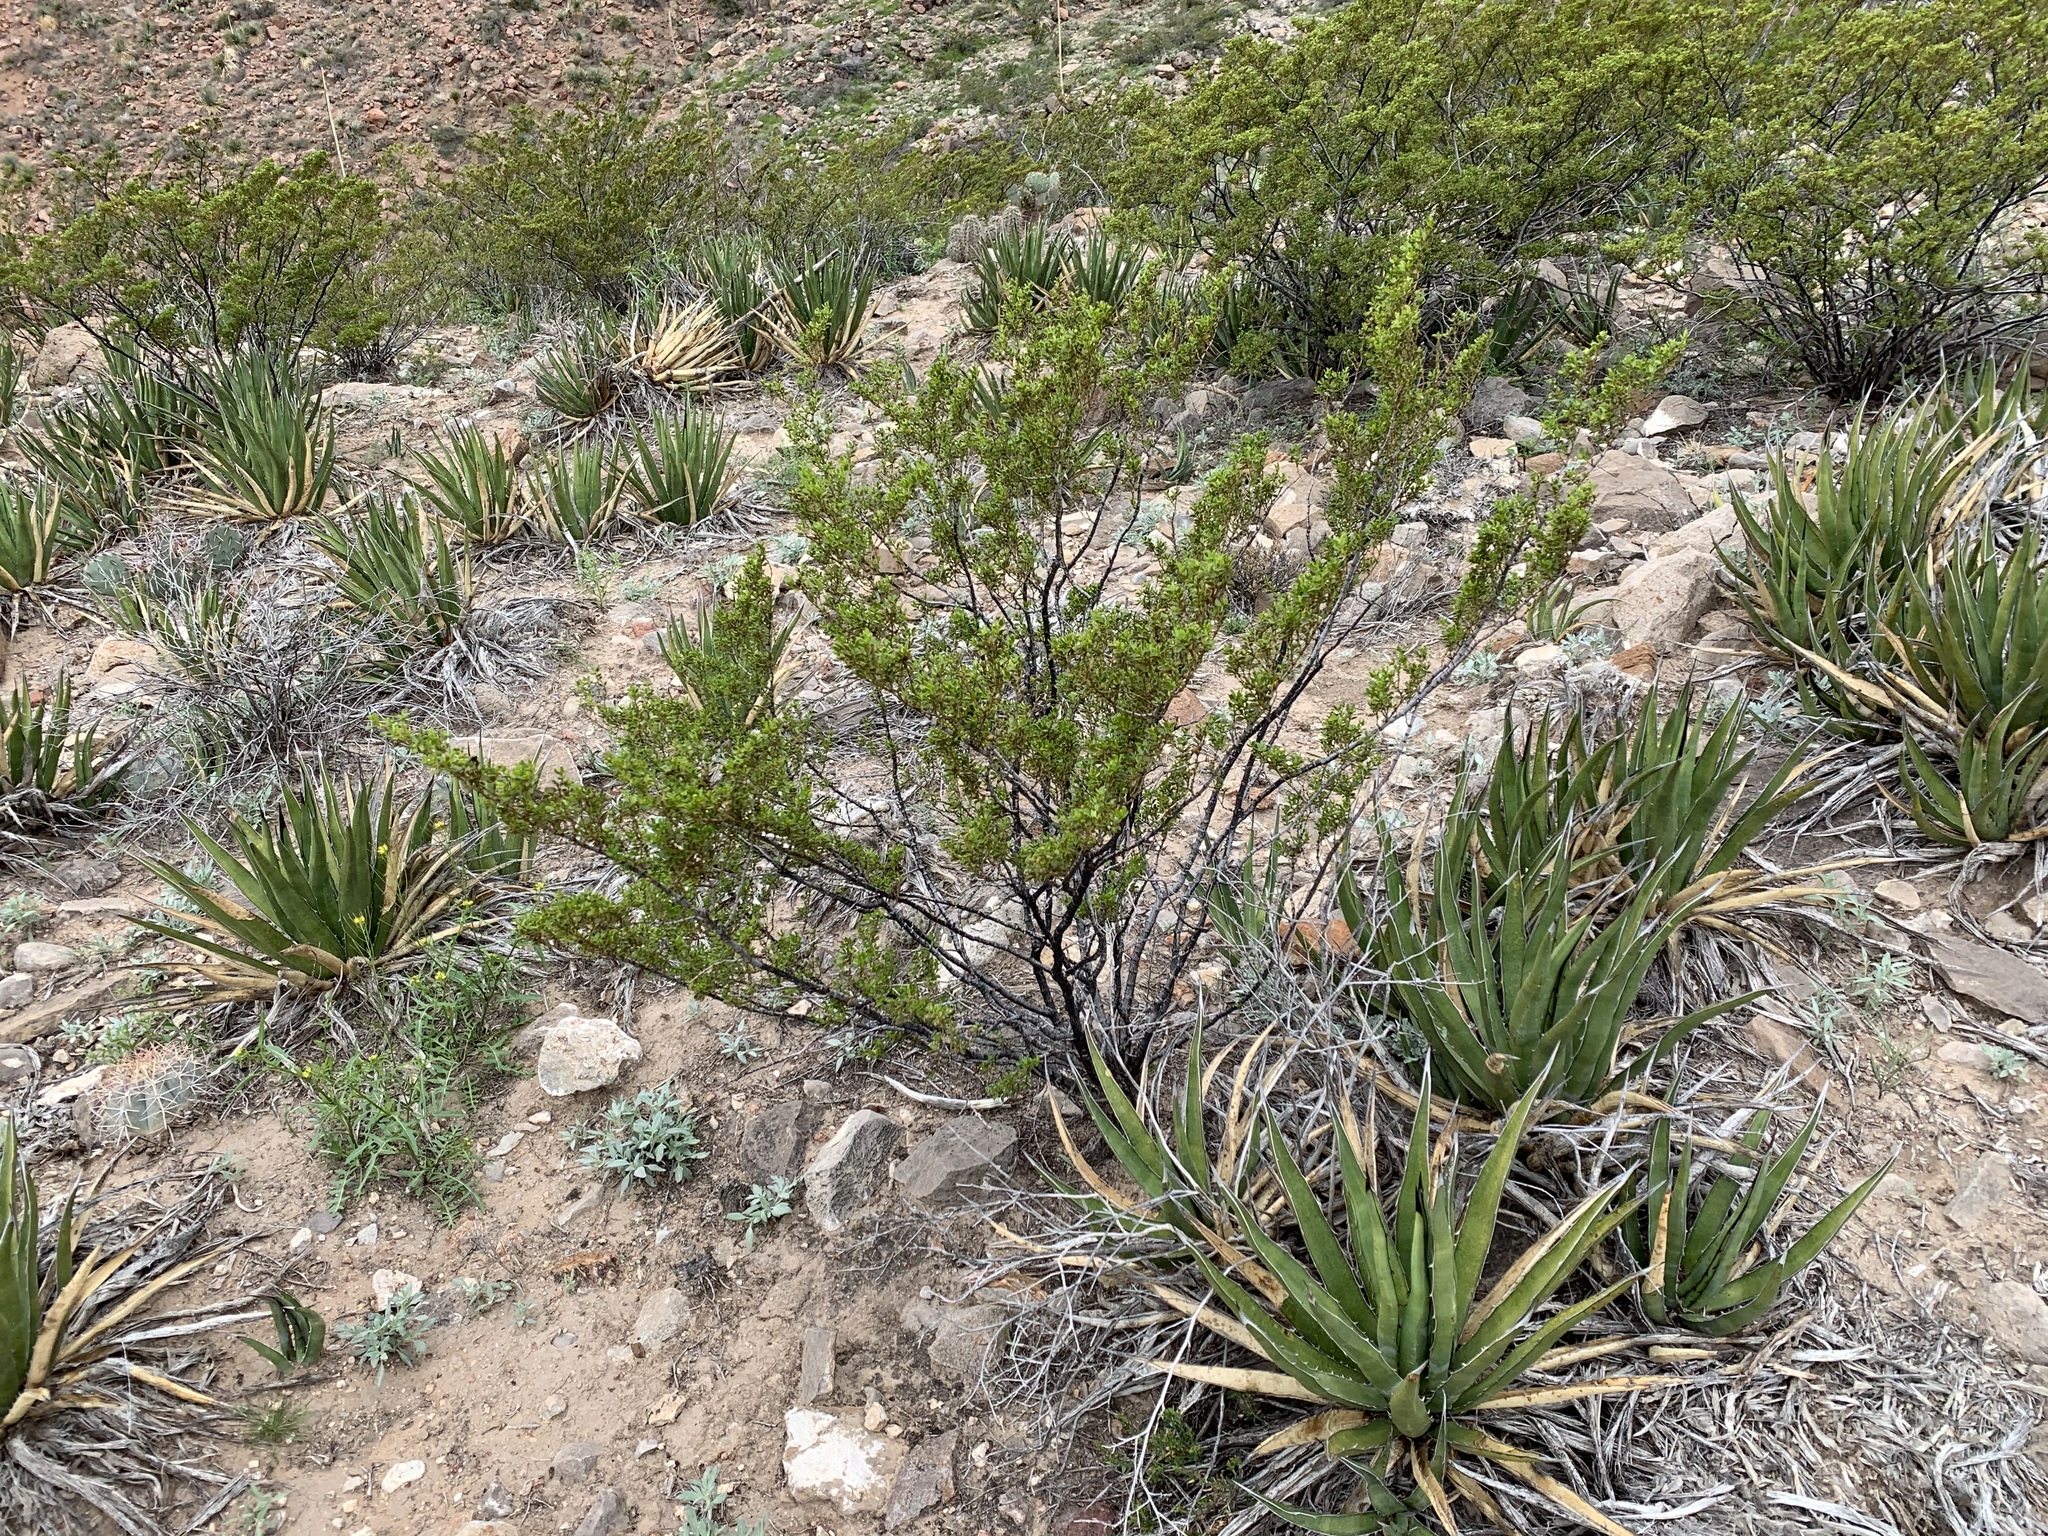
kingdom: Plantae
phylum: Tracheophyta
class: Magnoliopsida
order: Zygophyllales
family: Zygophyllaceae
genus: Larrea
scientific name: Larrea tridentata
